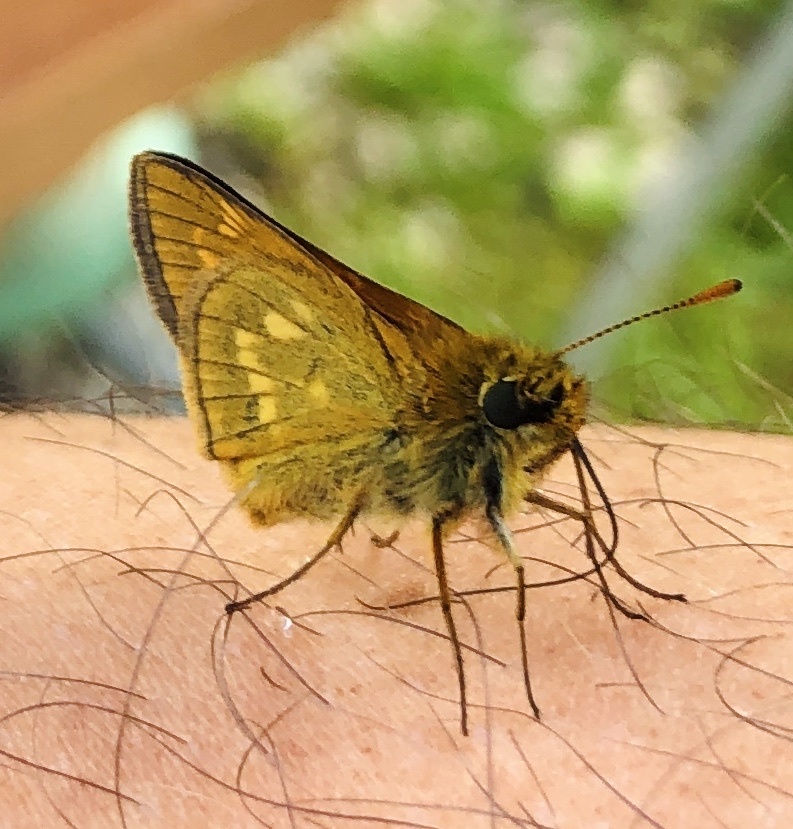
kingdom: Animalia
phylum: Arthropoda
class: Insecta
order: Lepidoptera
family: Hesperiidae
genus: Ochlodes
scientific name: Ochlodes venata
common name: Large skipper
